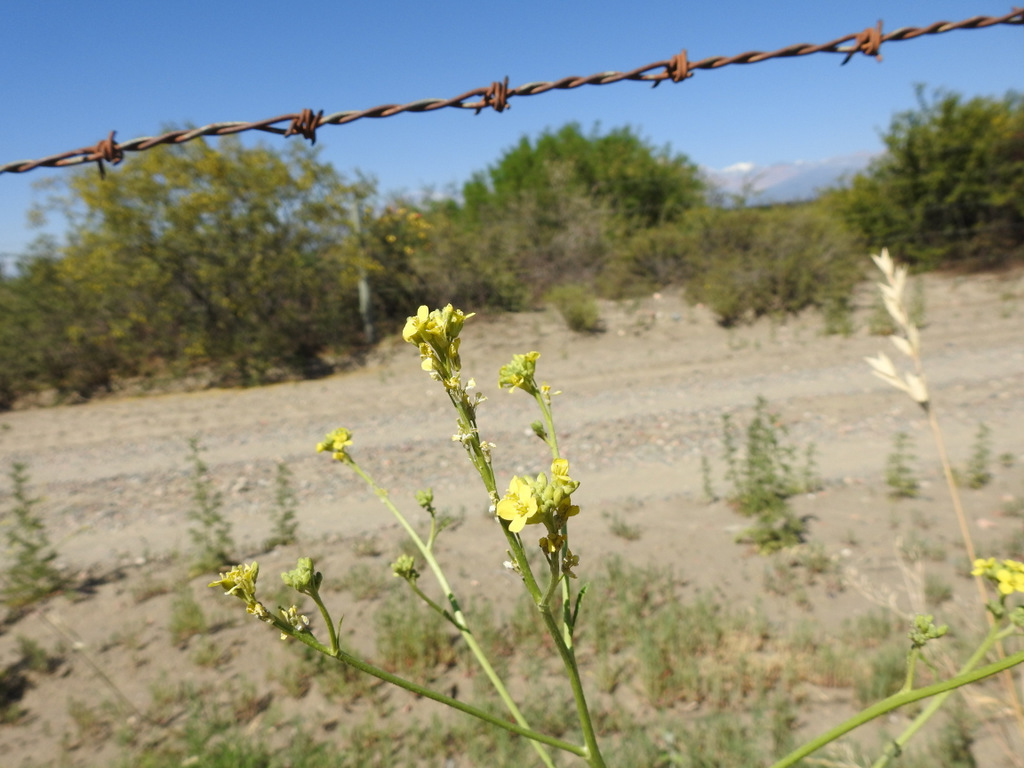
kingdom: Plantae
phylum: Tracheophyta
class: Magnoliopsida
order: Brassicales
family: Brassicaceae
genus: Hirschfeldia
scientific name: Hirschfeldia incana
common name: Hoary mustard
